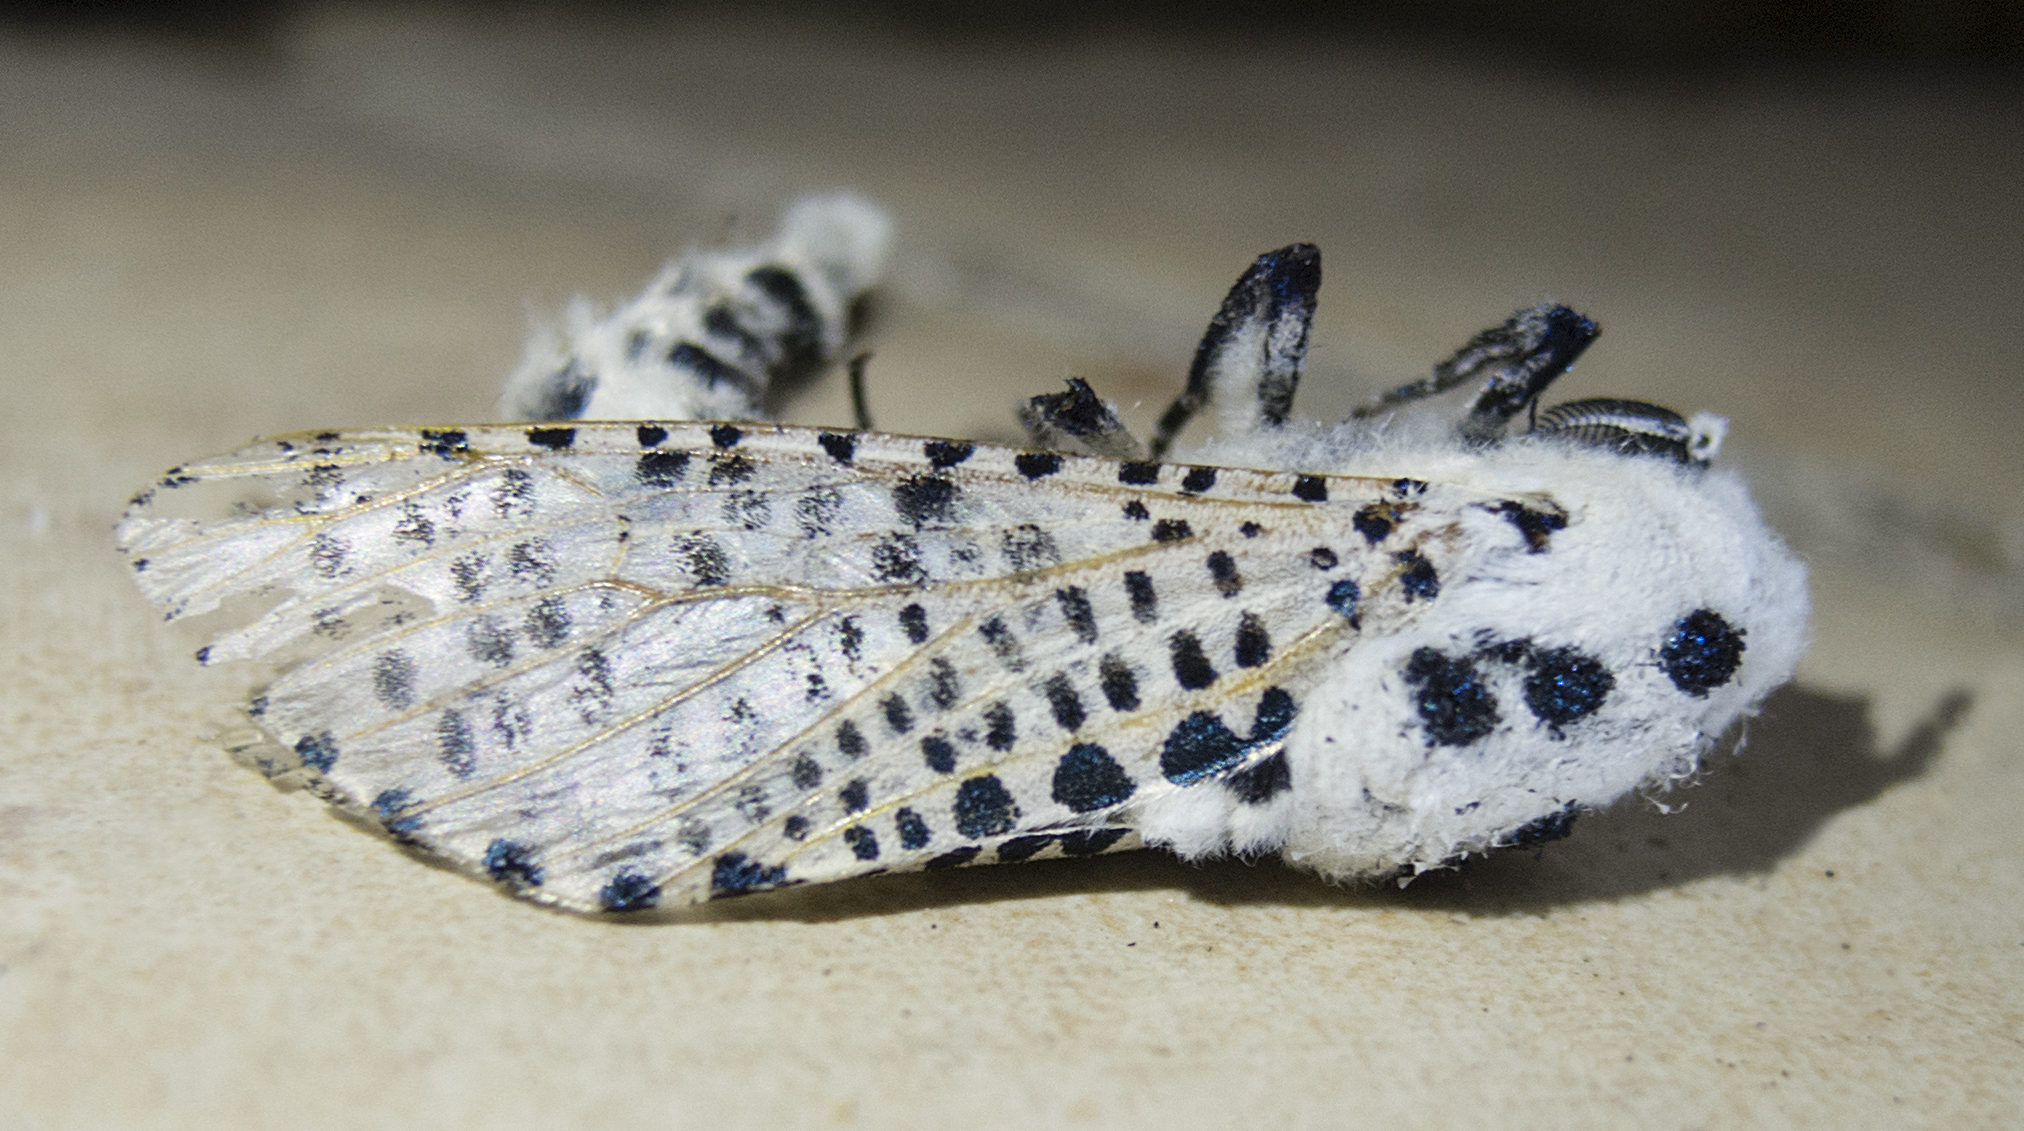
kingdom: Animalia
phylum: Arthropoda
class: Insecta
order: Lepidoptera
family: Cossidae
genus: Zeuzera
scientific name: Zeuzera pyrina
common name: Leopard moth
